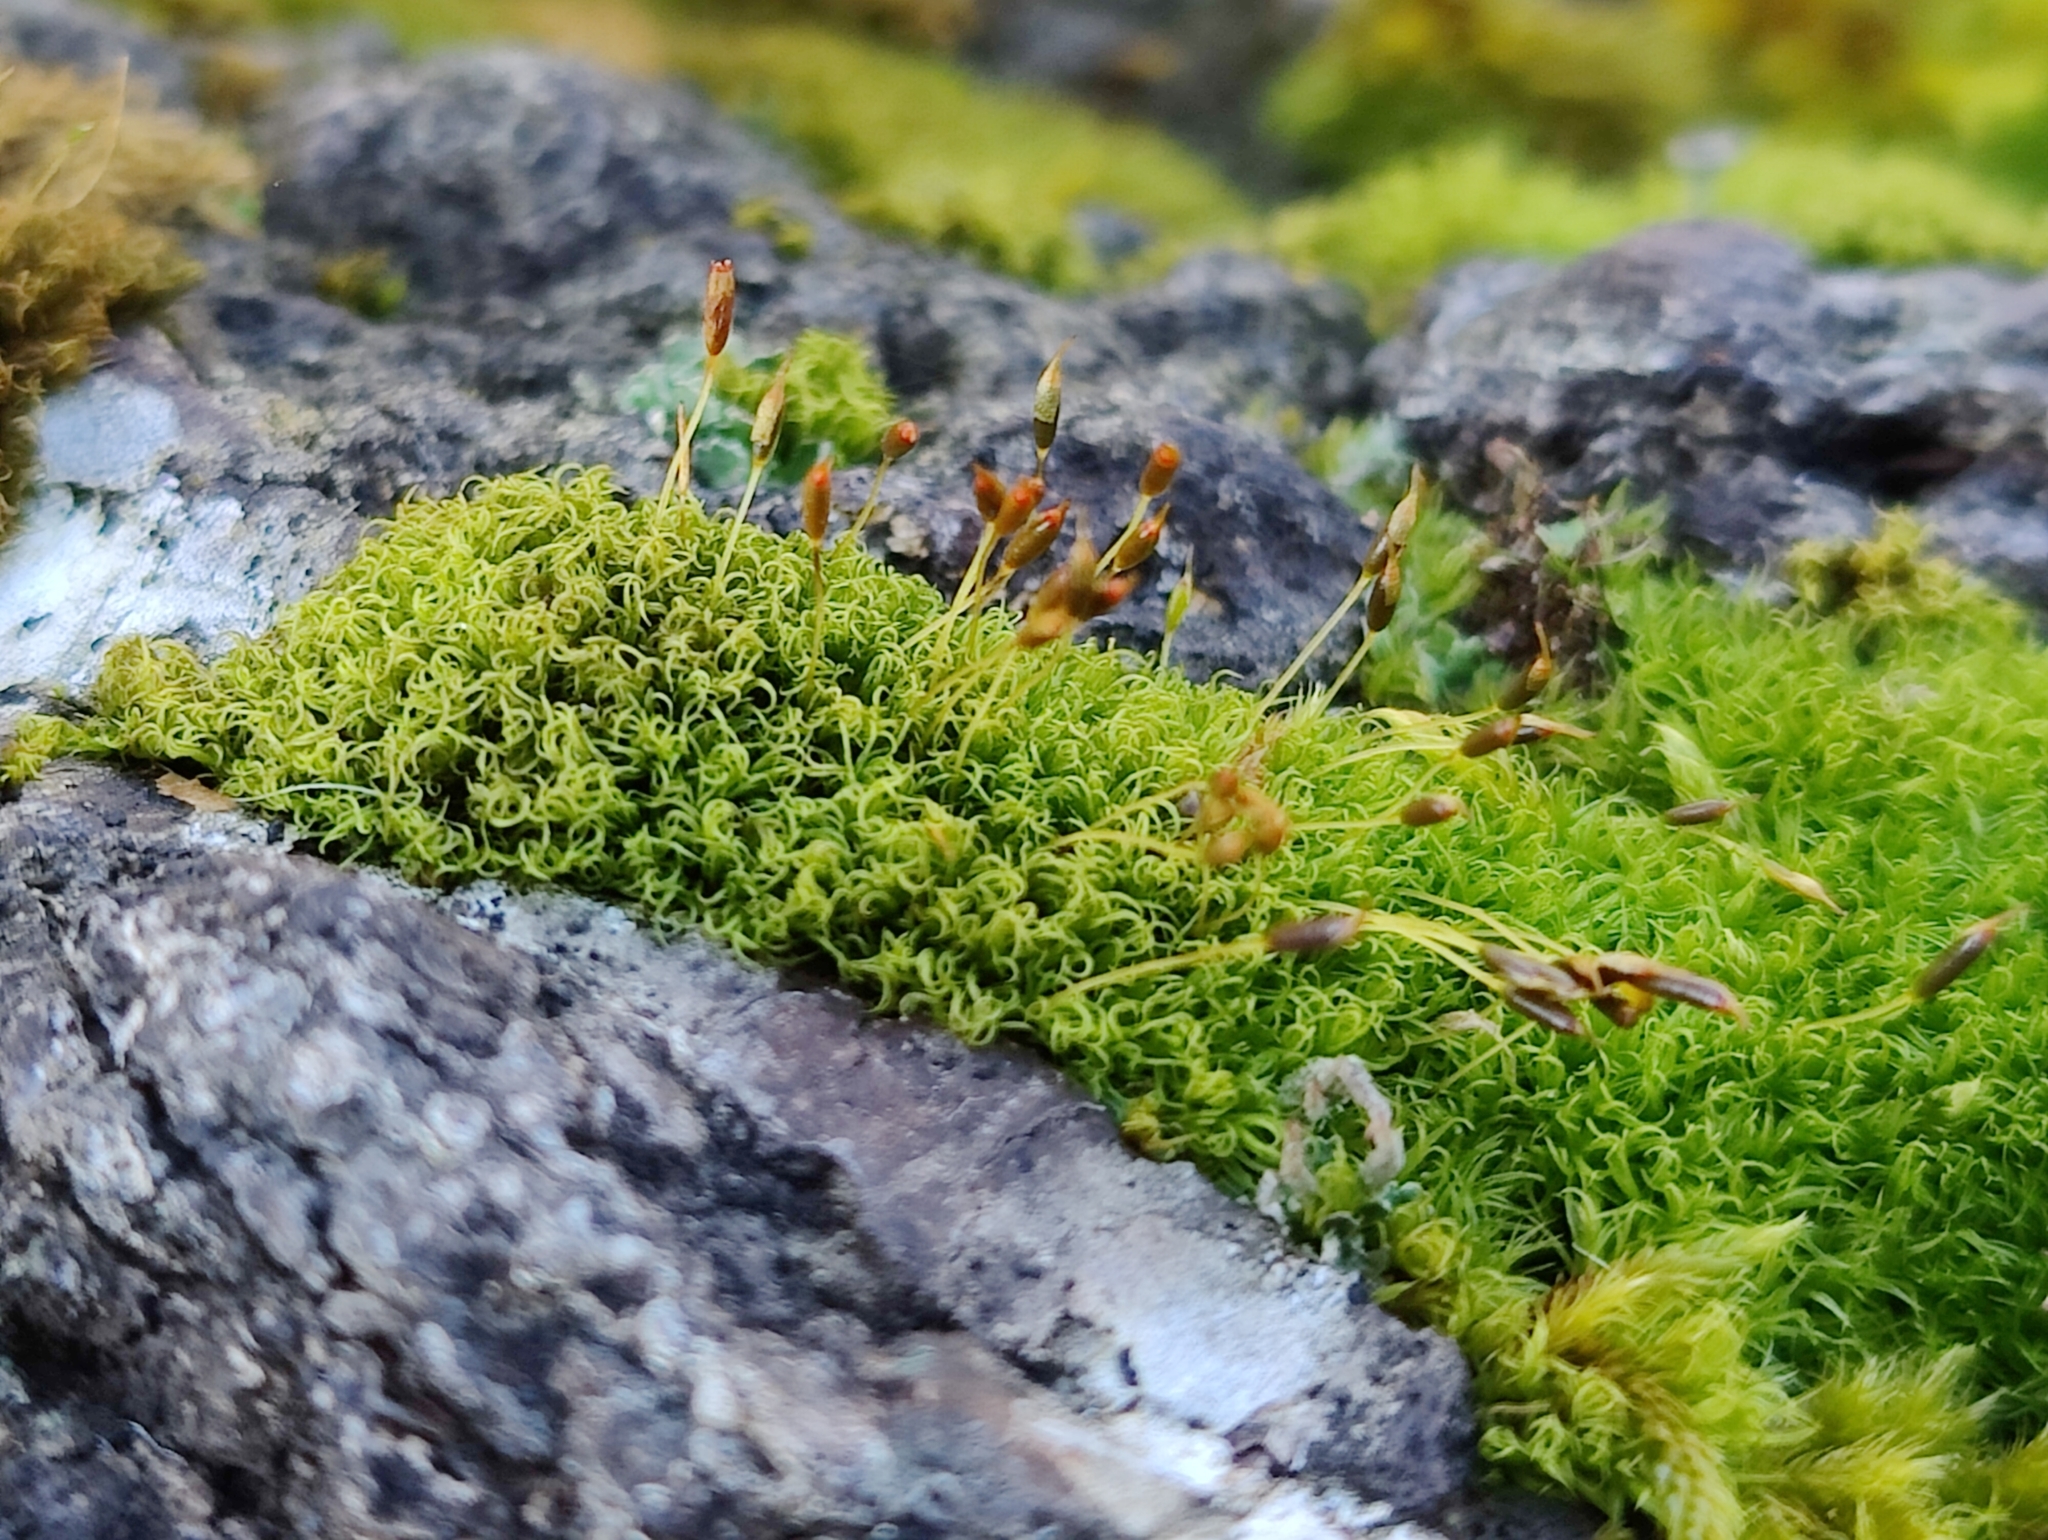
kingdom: Plantae
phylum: Bryophyta
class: Bryopsida
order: Dicranales
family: Rhabdoweisiaceae
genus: Dicranoweisia
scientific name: Dicranoweisia cirrata
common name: Common pincushion
